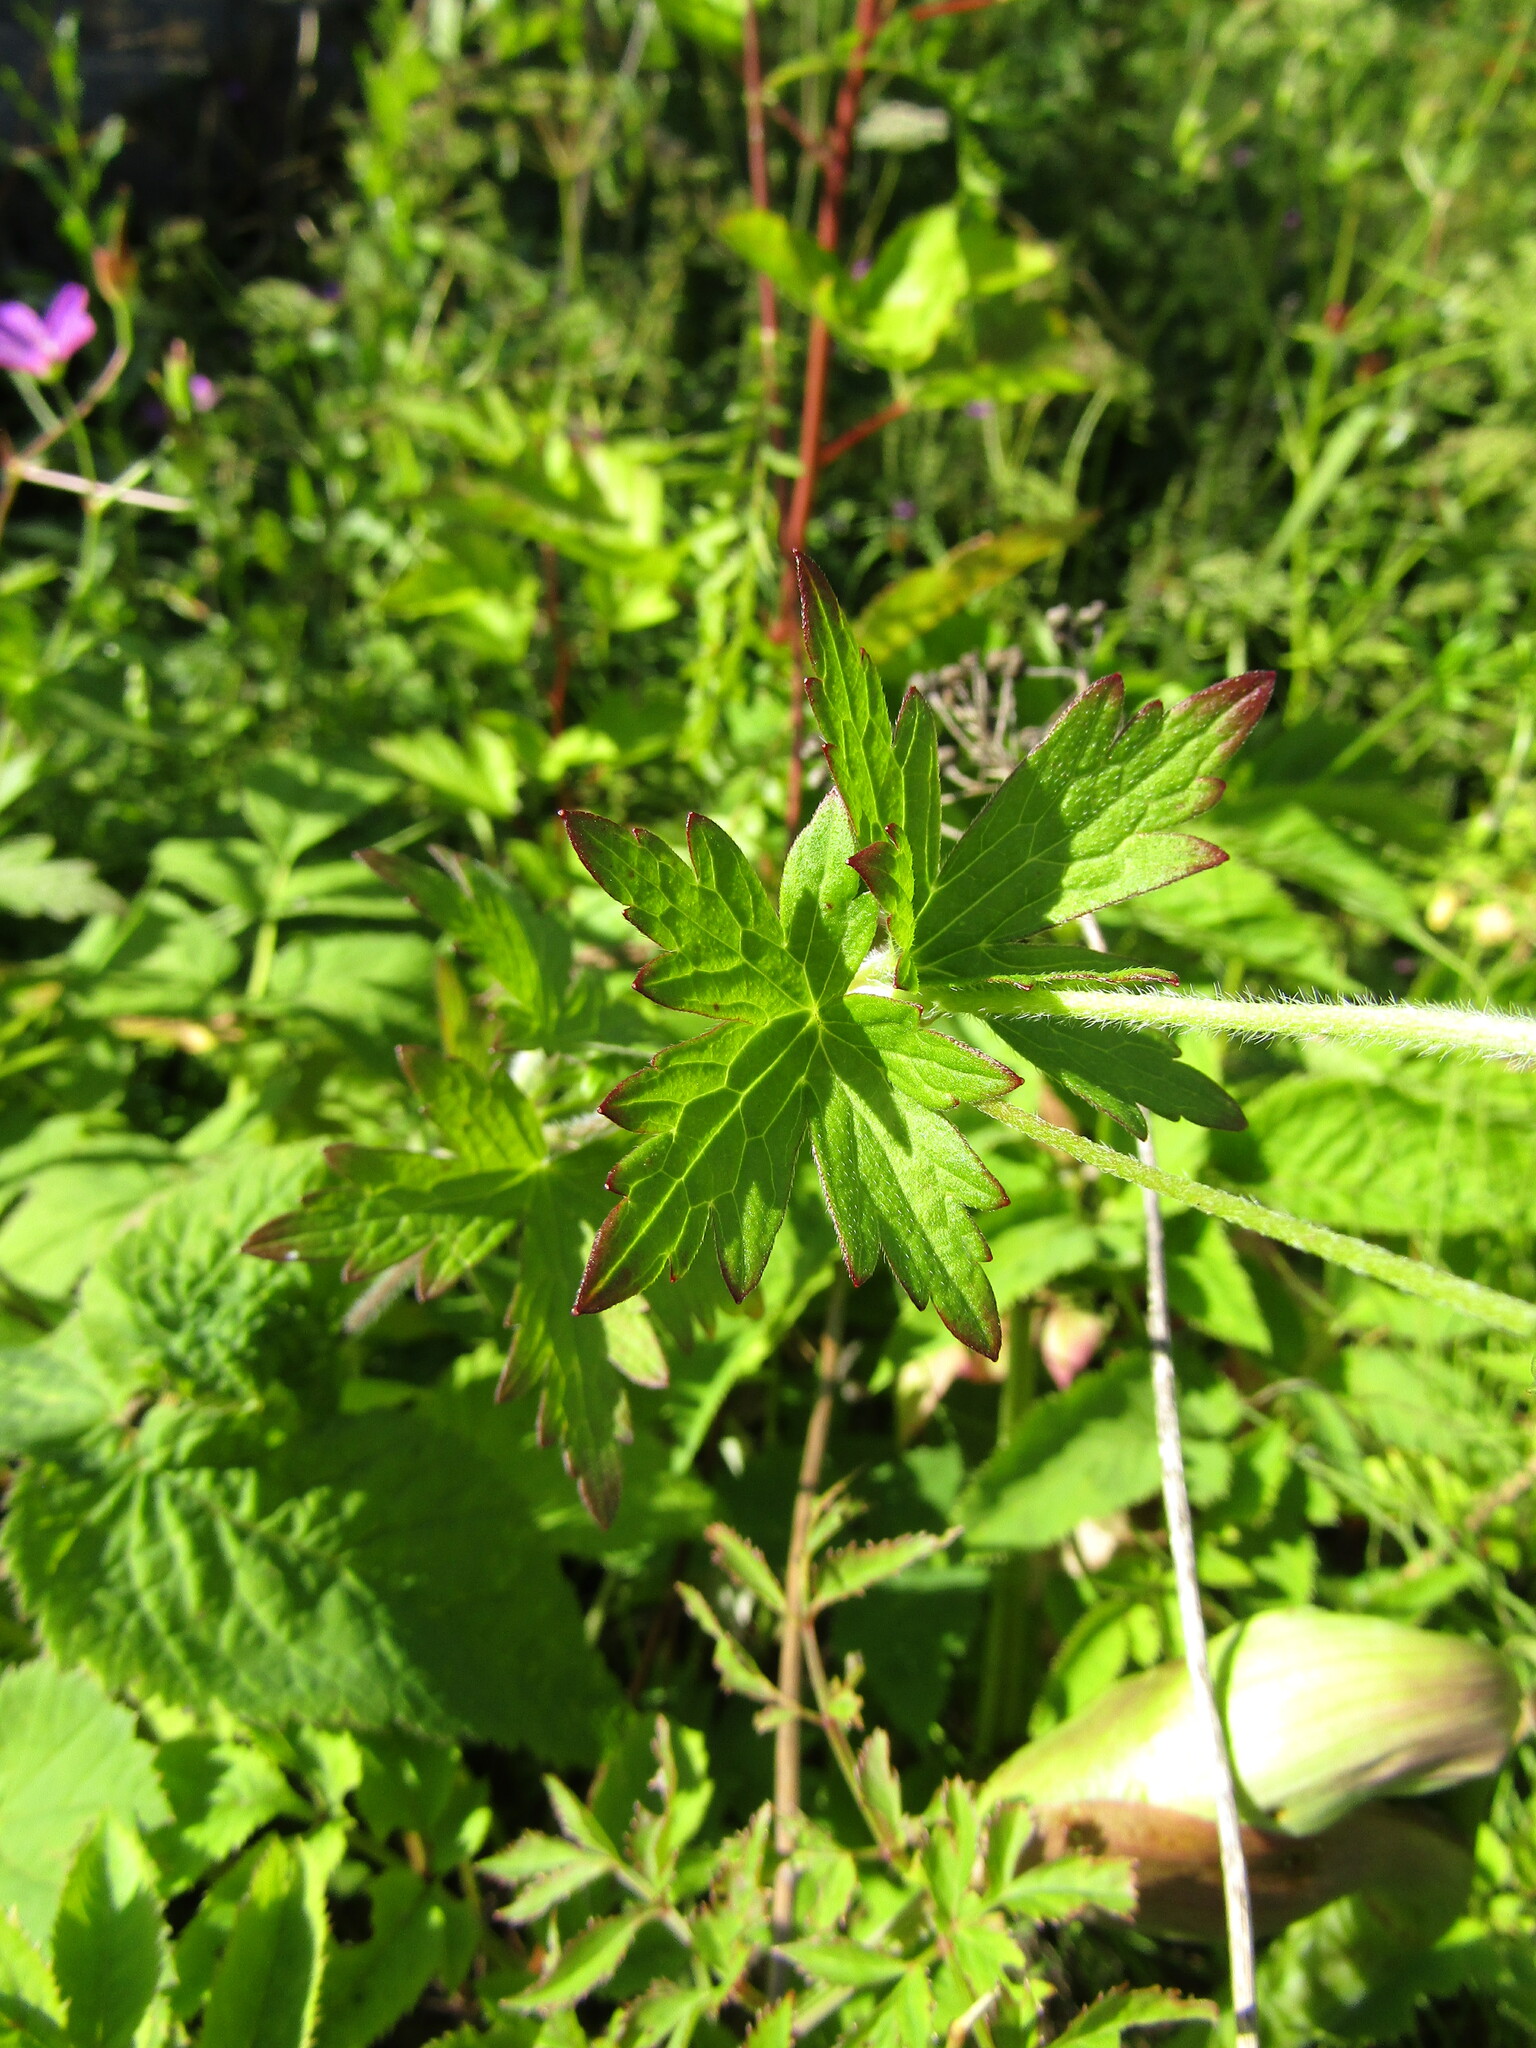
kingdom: Plantae
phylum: Tracheophyta
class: Magnoliopsida
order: Geraniales
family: Geraniaceae
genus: Geranium
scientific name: Geranium palustre
